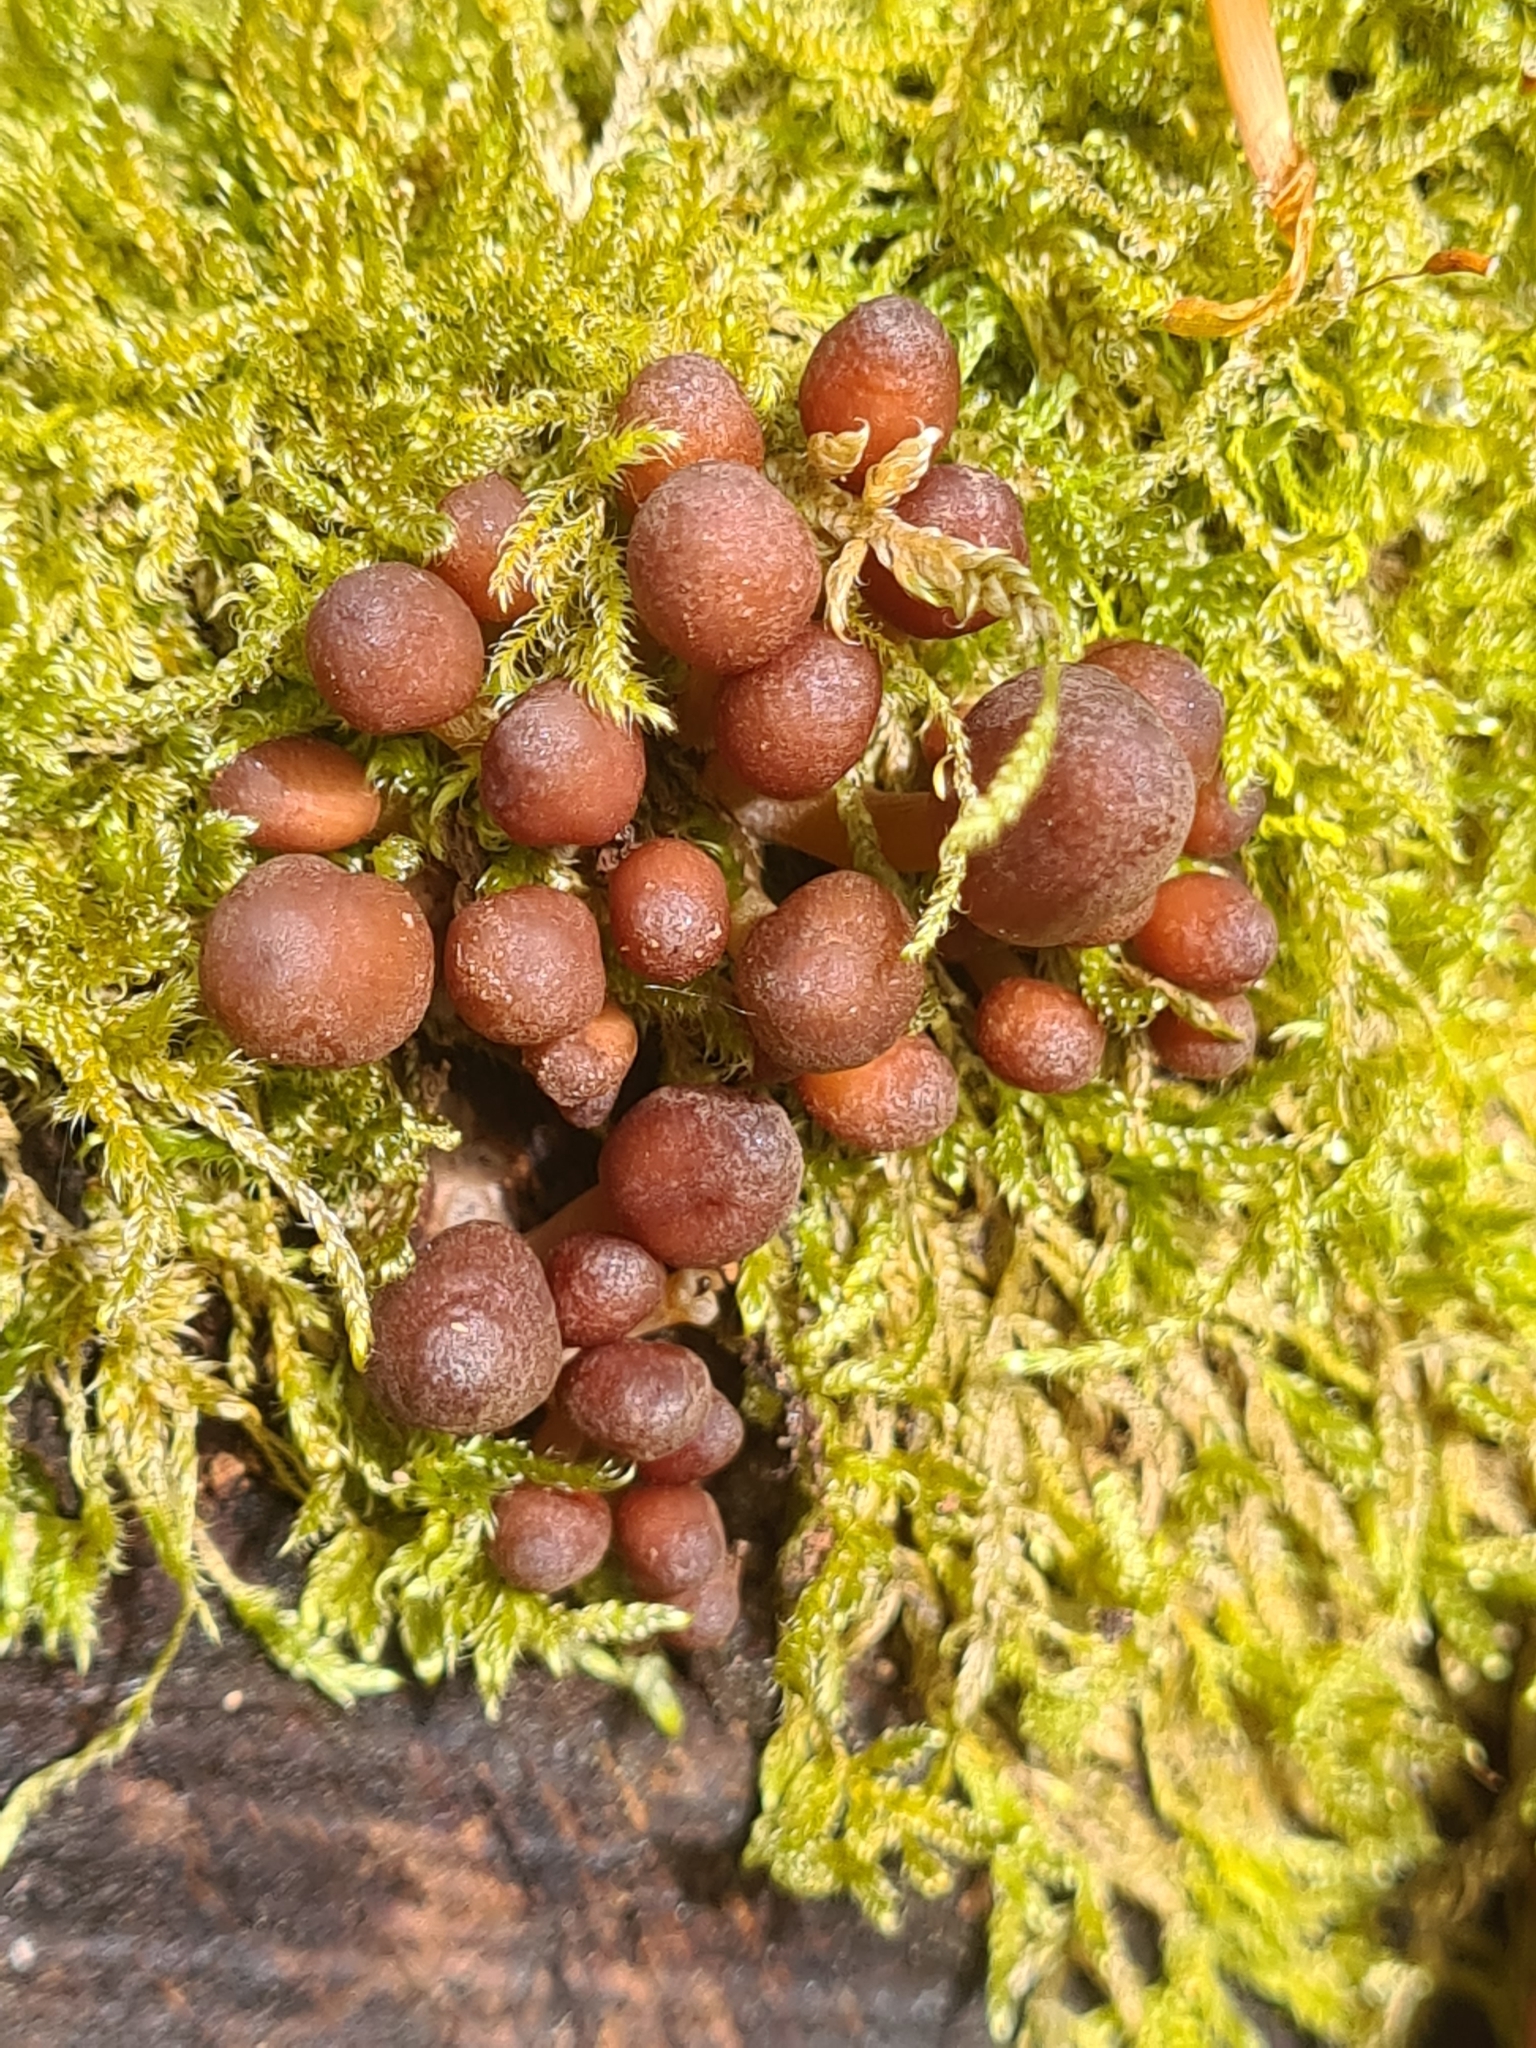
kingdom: Fungi
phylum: Basidiomycota
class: Agaricomycetes
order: Agaricales
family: Mycenaceae
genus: Mycena
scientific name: Mycena renati
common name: Beautiful bonnet
